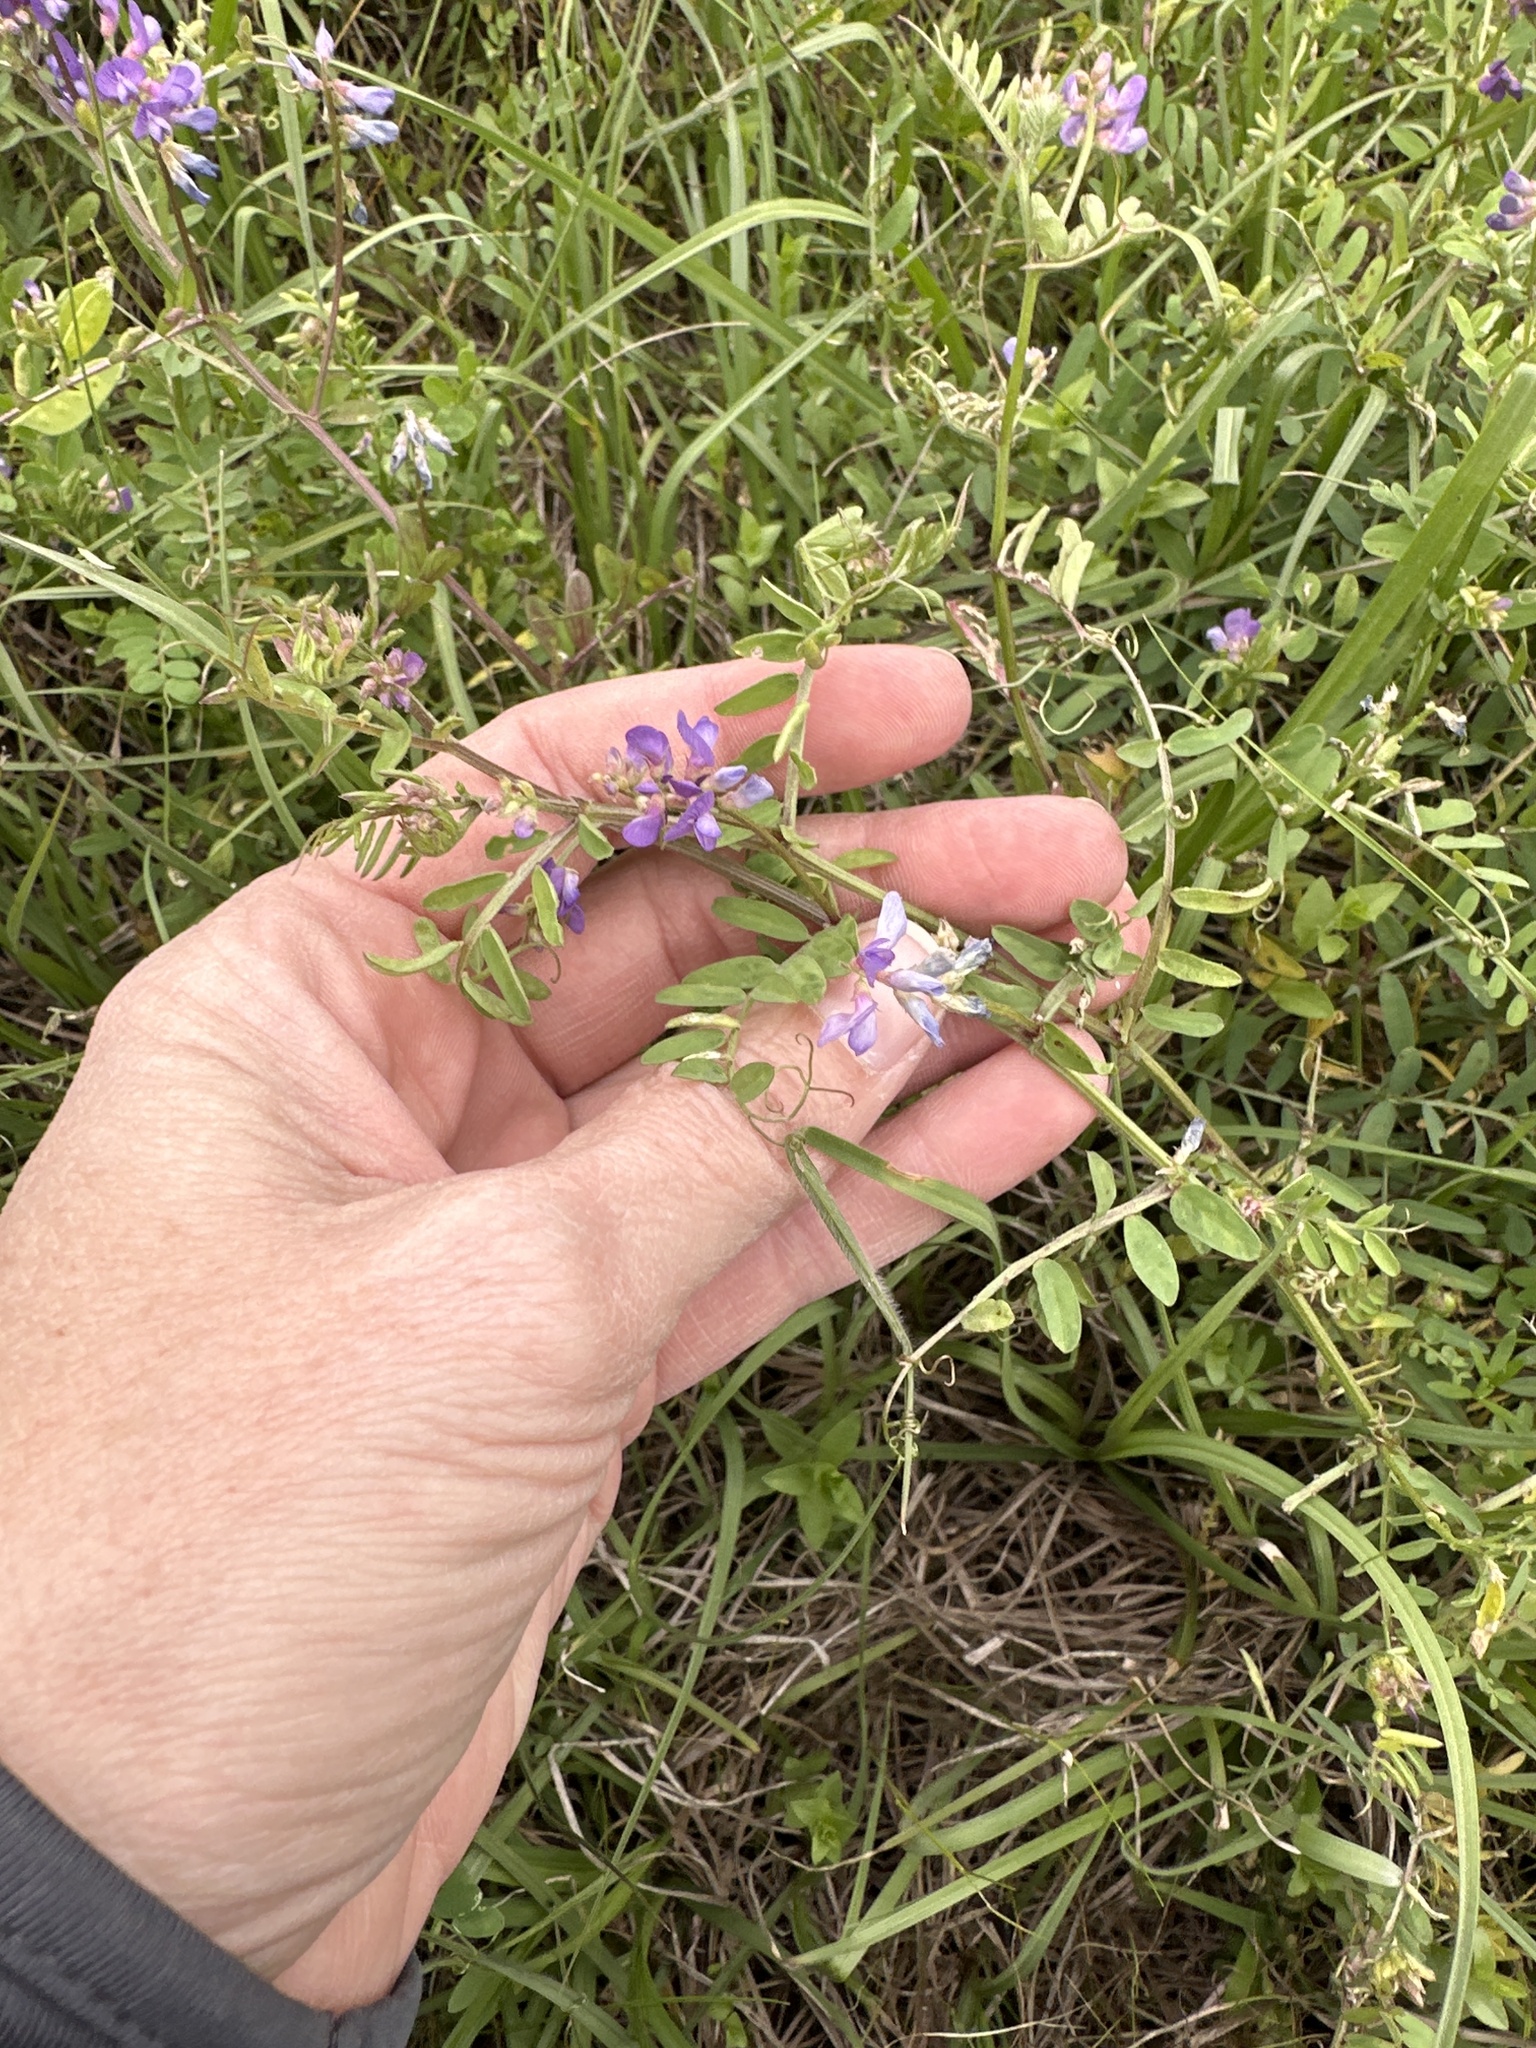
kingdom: Plantae
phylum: Tracheophyta
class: Magnoliopsida
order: Fabales
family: Fabaceae
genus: Vicia
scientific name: Vicia ludoviciana
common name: Louisiana vetch
